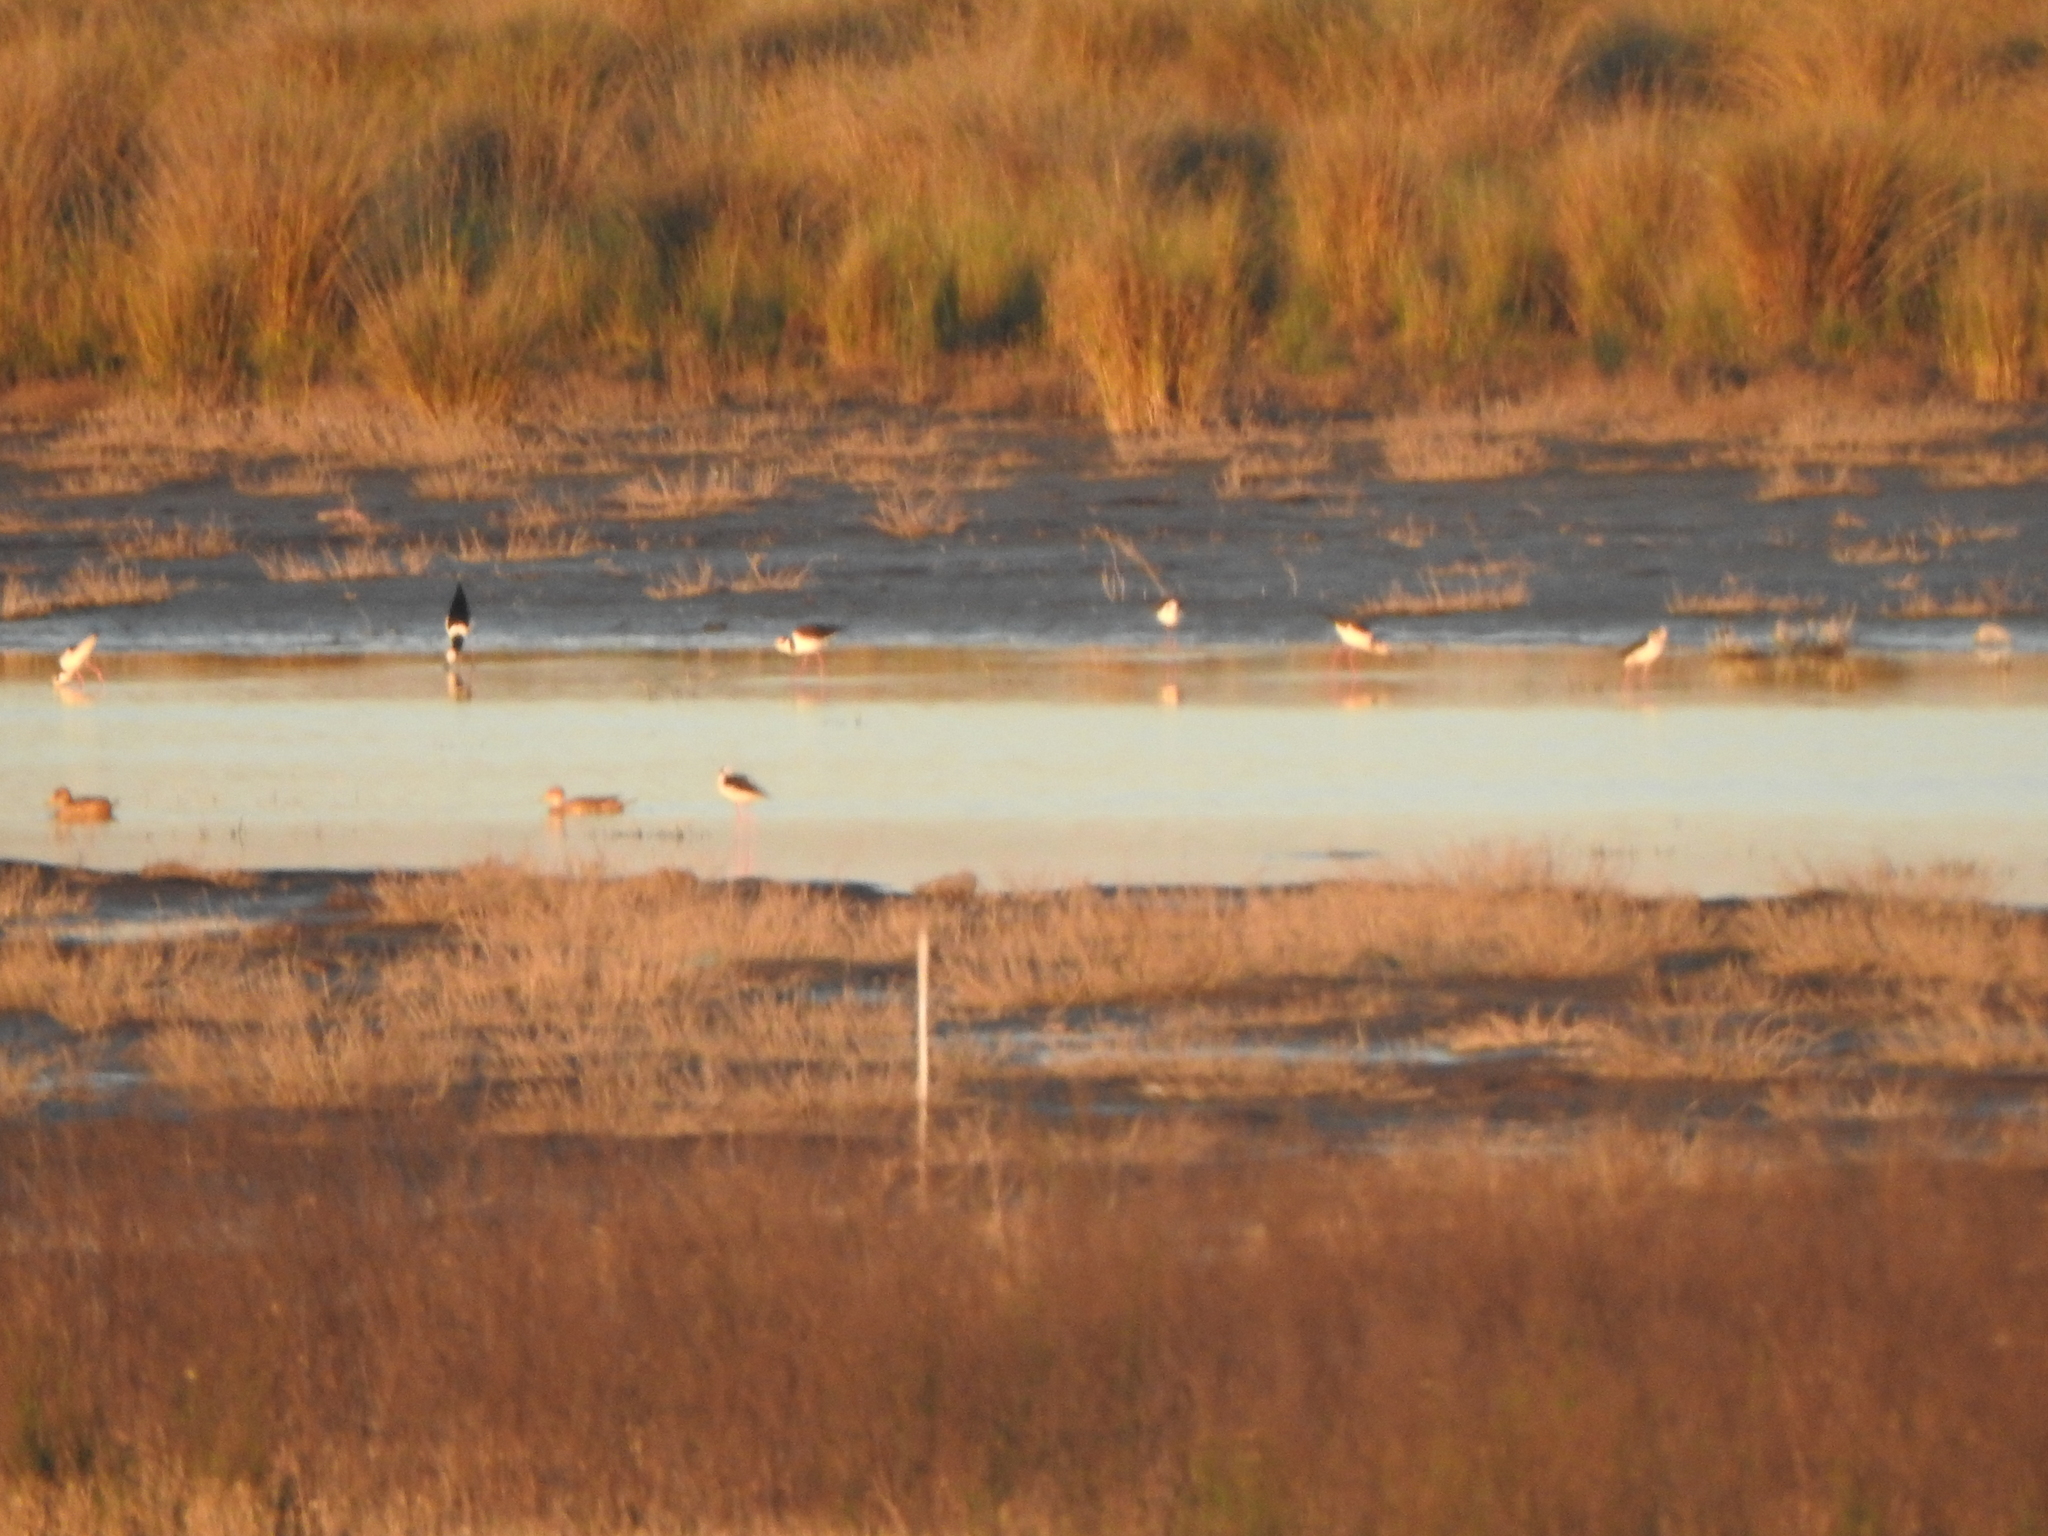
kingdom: Animalia
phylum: Chordata
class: Aves
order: Charadriiformes
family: Recurvirostridae
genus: Himantopus
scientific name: Himantopus mexicanus
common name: Black-necked stilt
